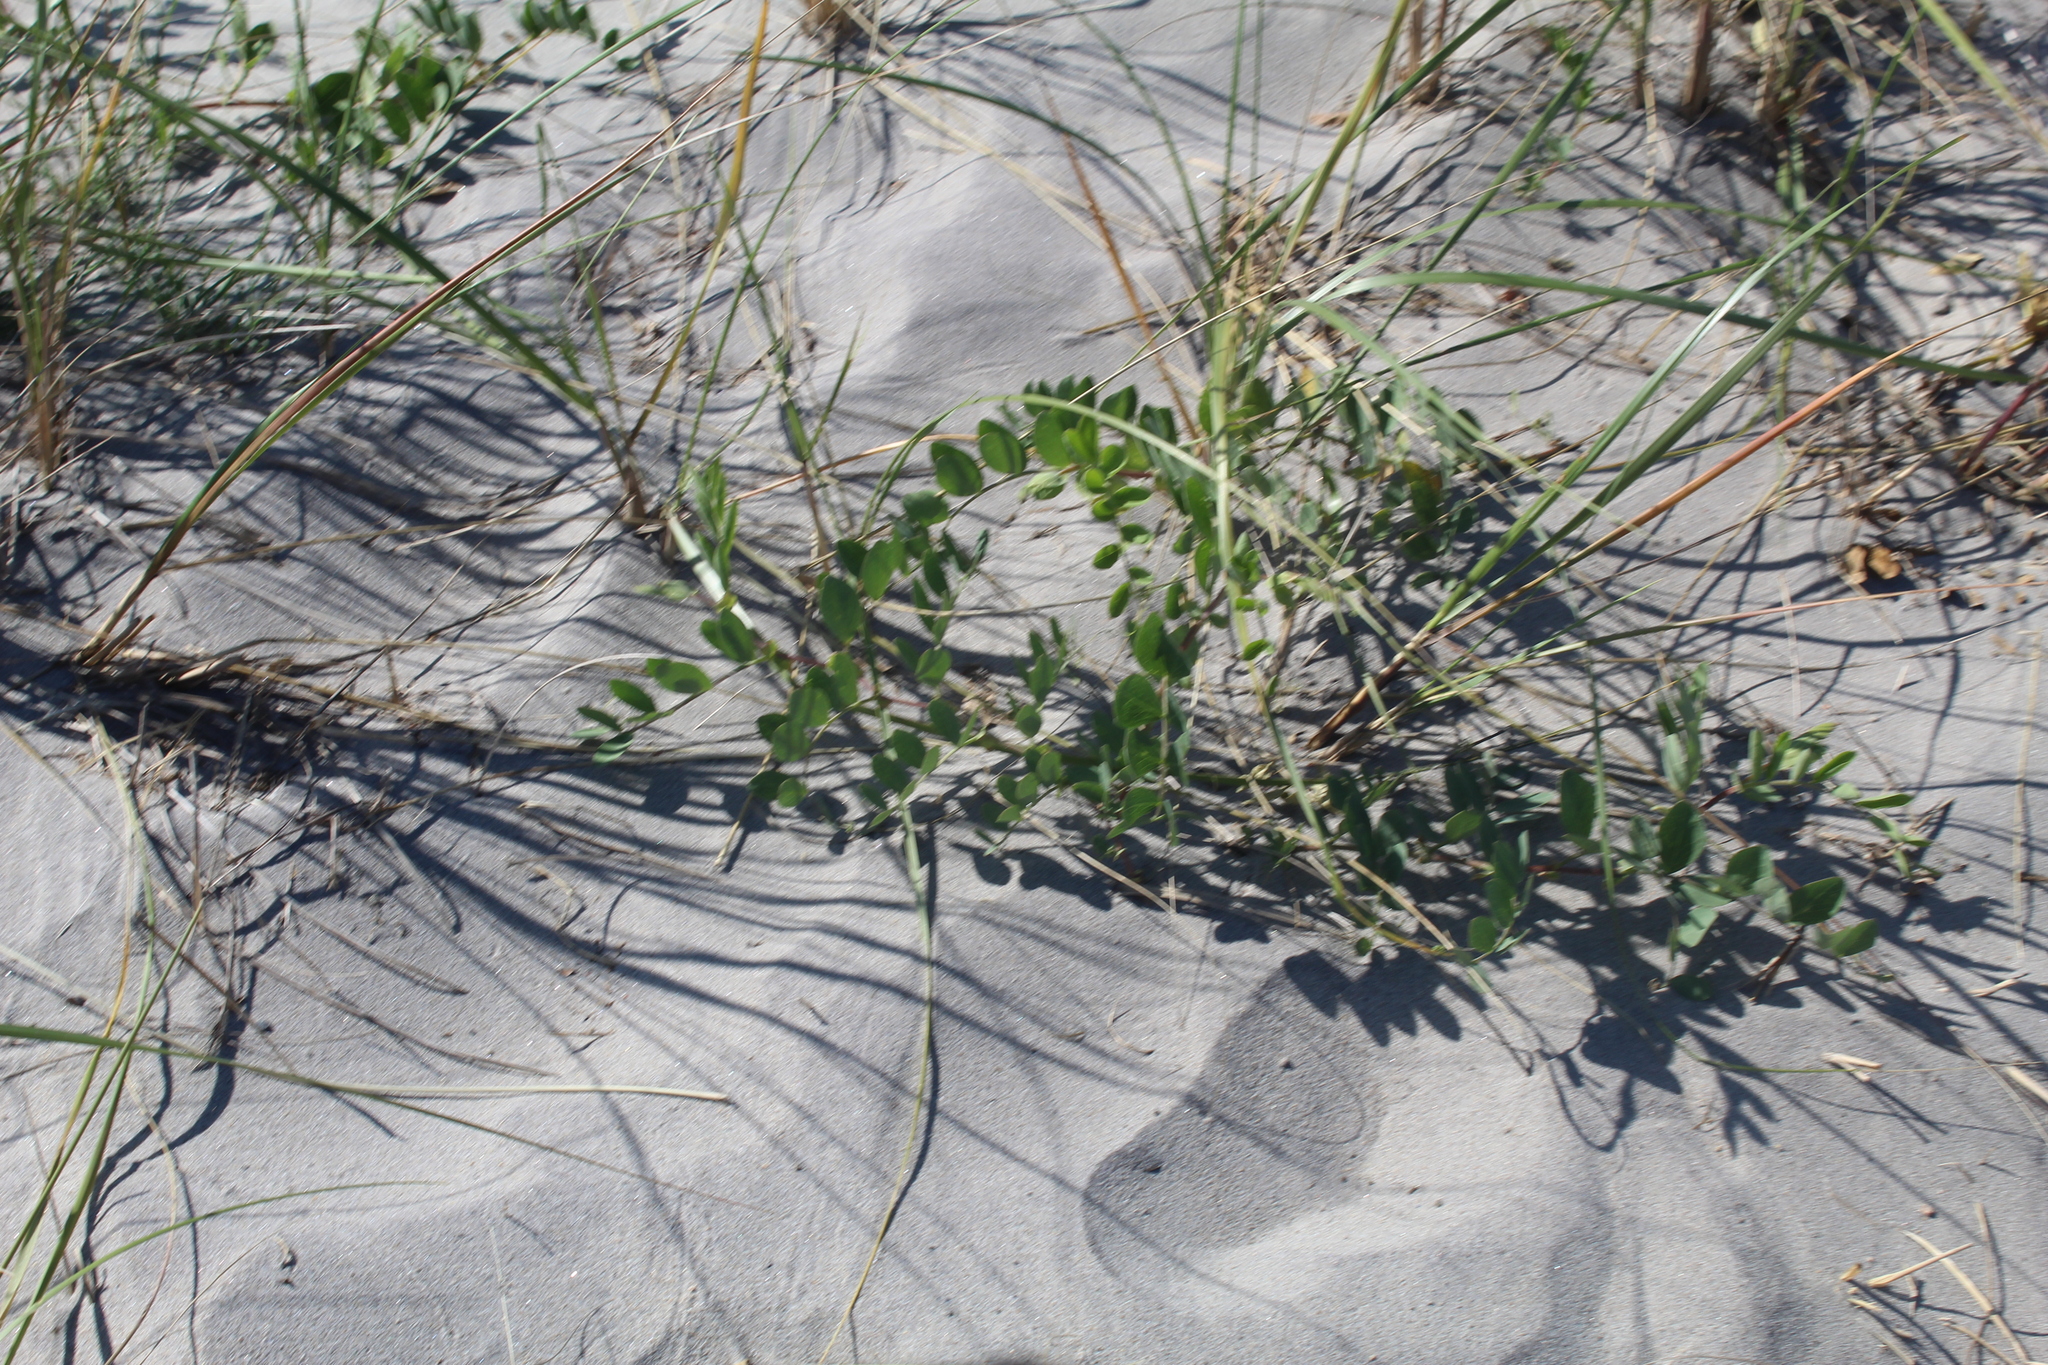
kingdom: Plantae
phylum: Tracheophyta
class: Magnoliopsida
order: Fabales
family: Fabaceae
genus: Lathyrus
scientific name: Lathyrus japonicus
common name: Sea pea
